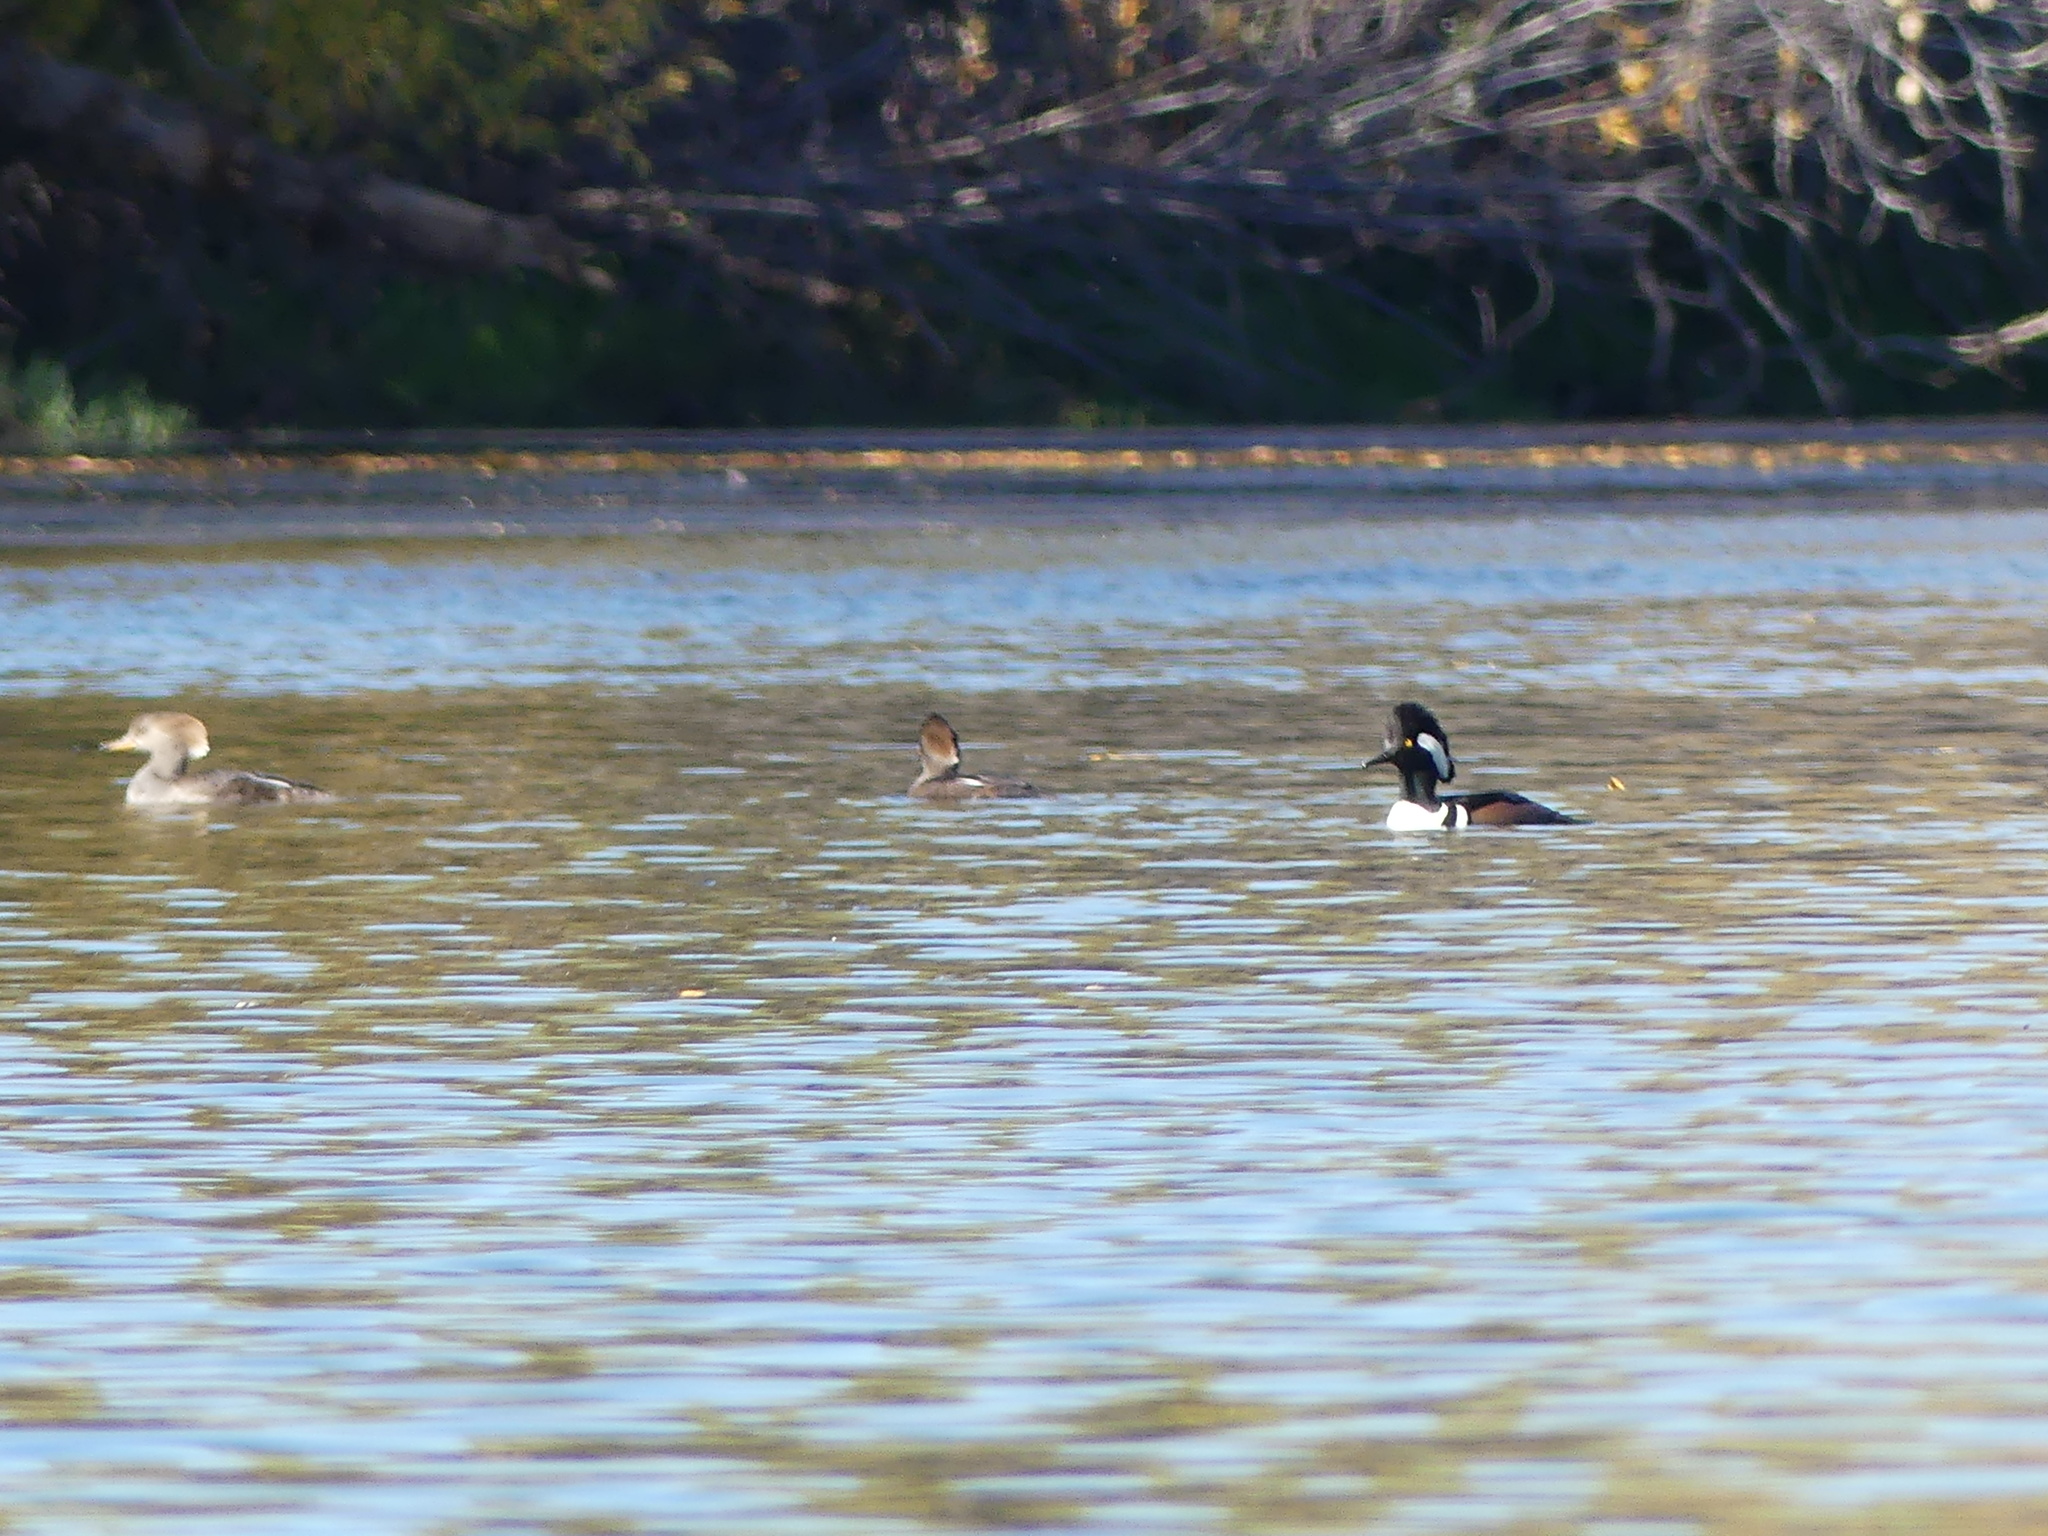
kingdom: Animalia
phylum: Chordata
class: Aves
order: Anseriformes
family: Anatidae
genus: Lophodytes
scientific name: Lophodytes cucullatus
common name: Hooded merganser
